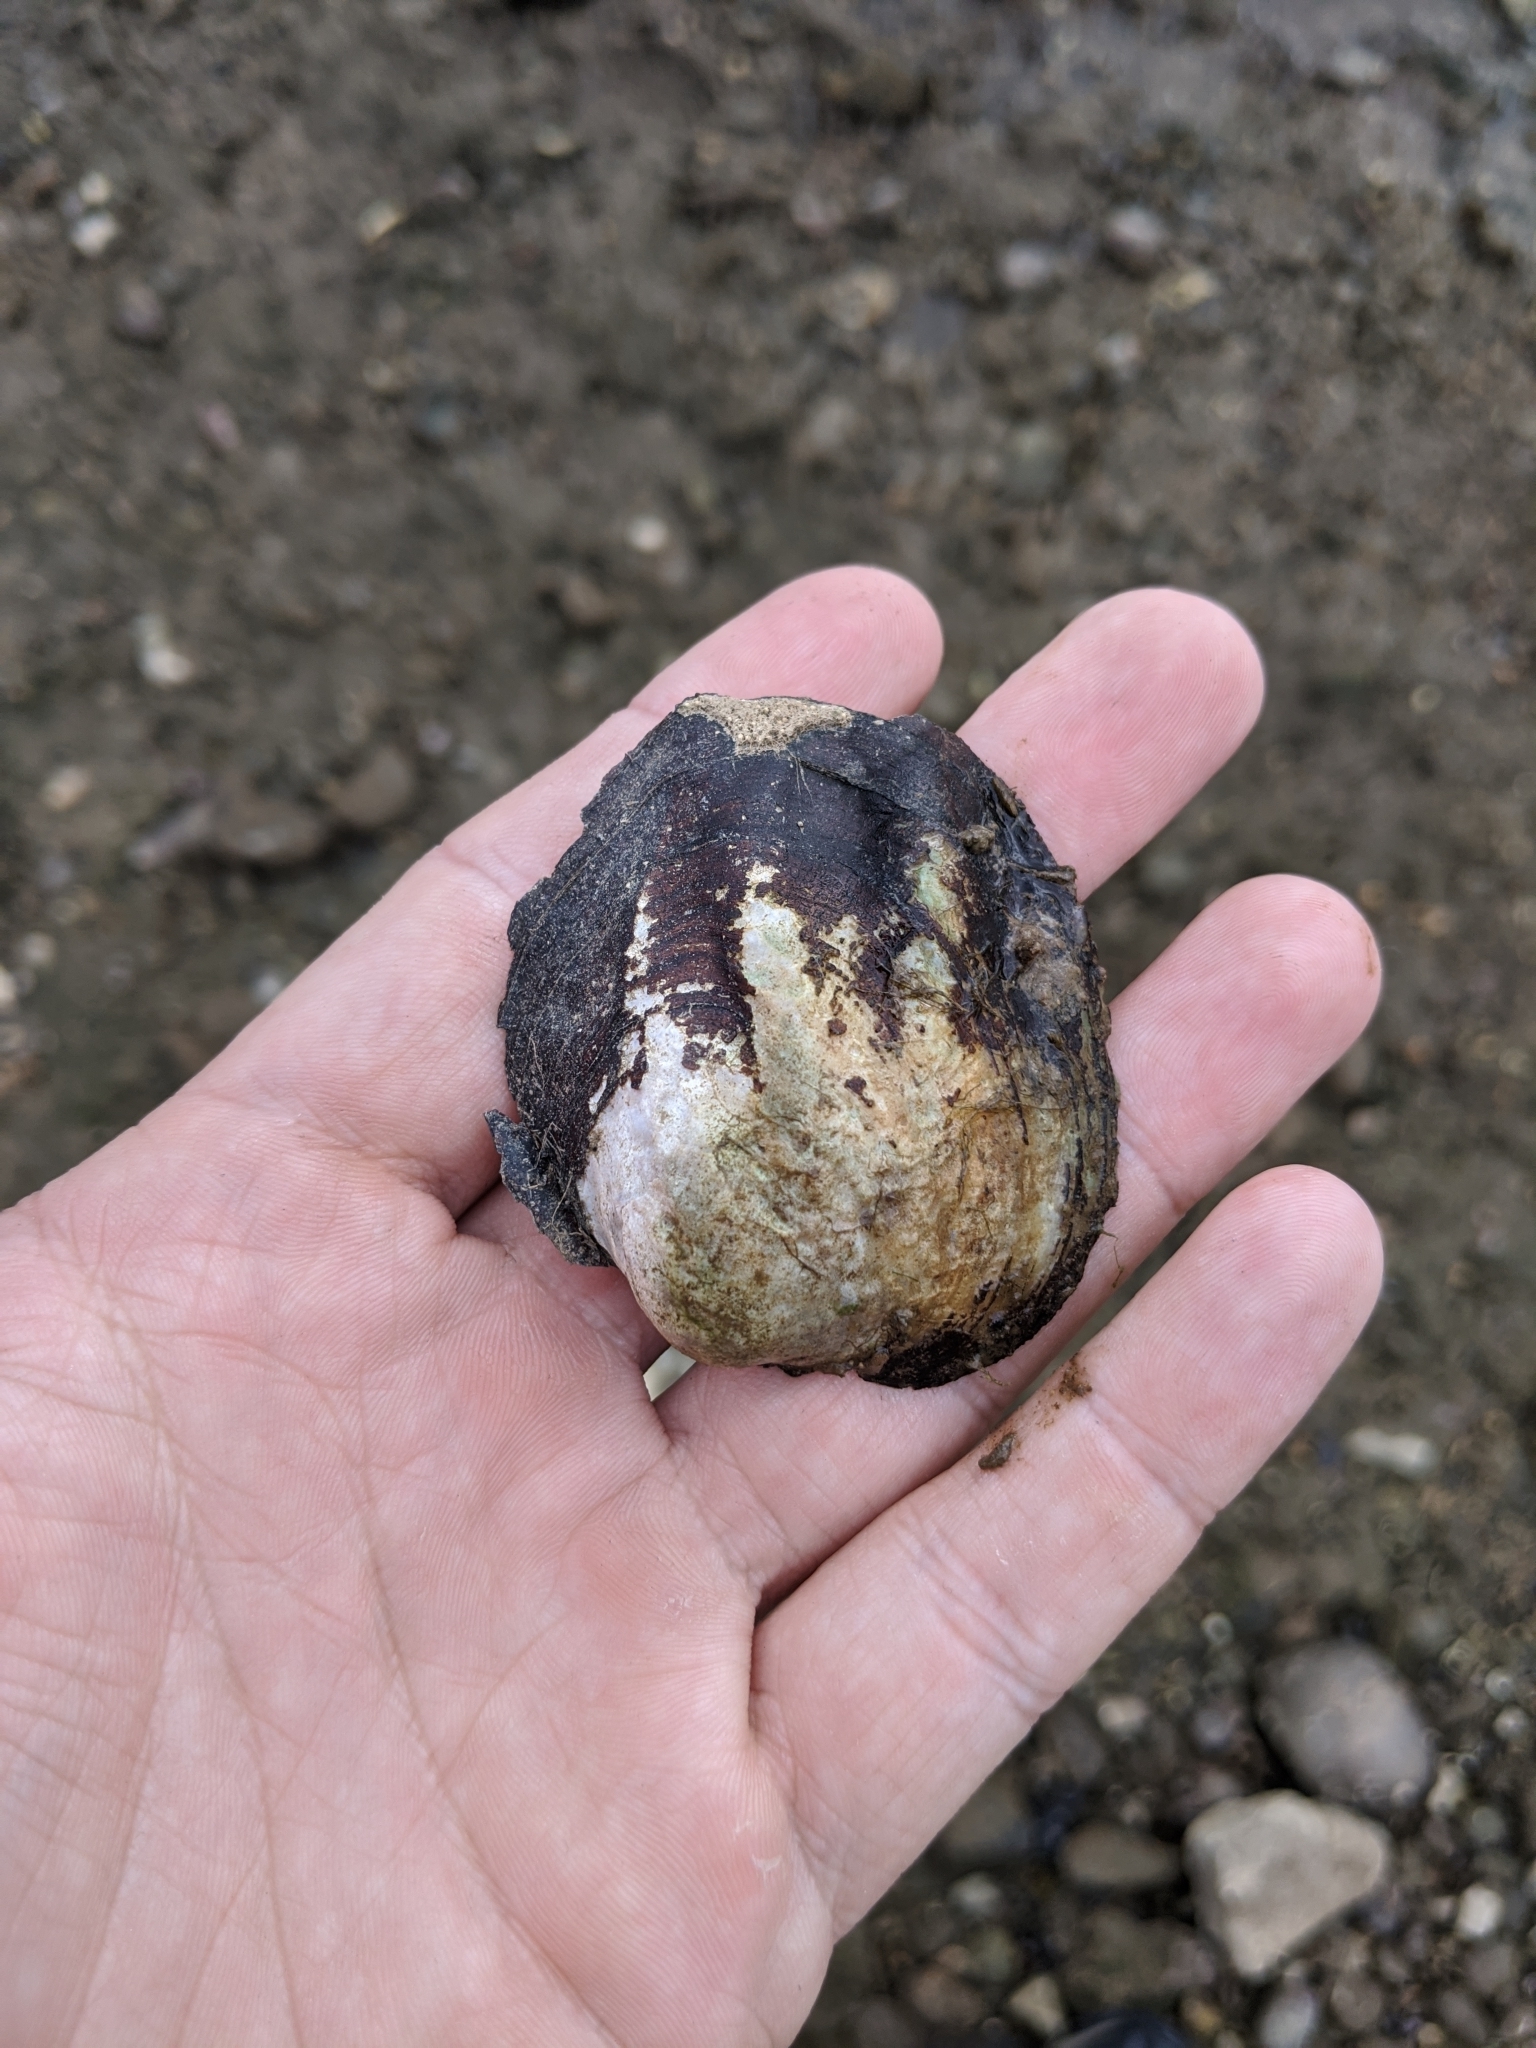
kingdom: Animalia
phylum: Mollusca
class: Bivalvia
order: Unionida
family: Unionidae
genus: Amblema
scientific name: Amblema plicata
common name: Threeridge
